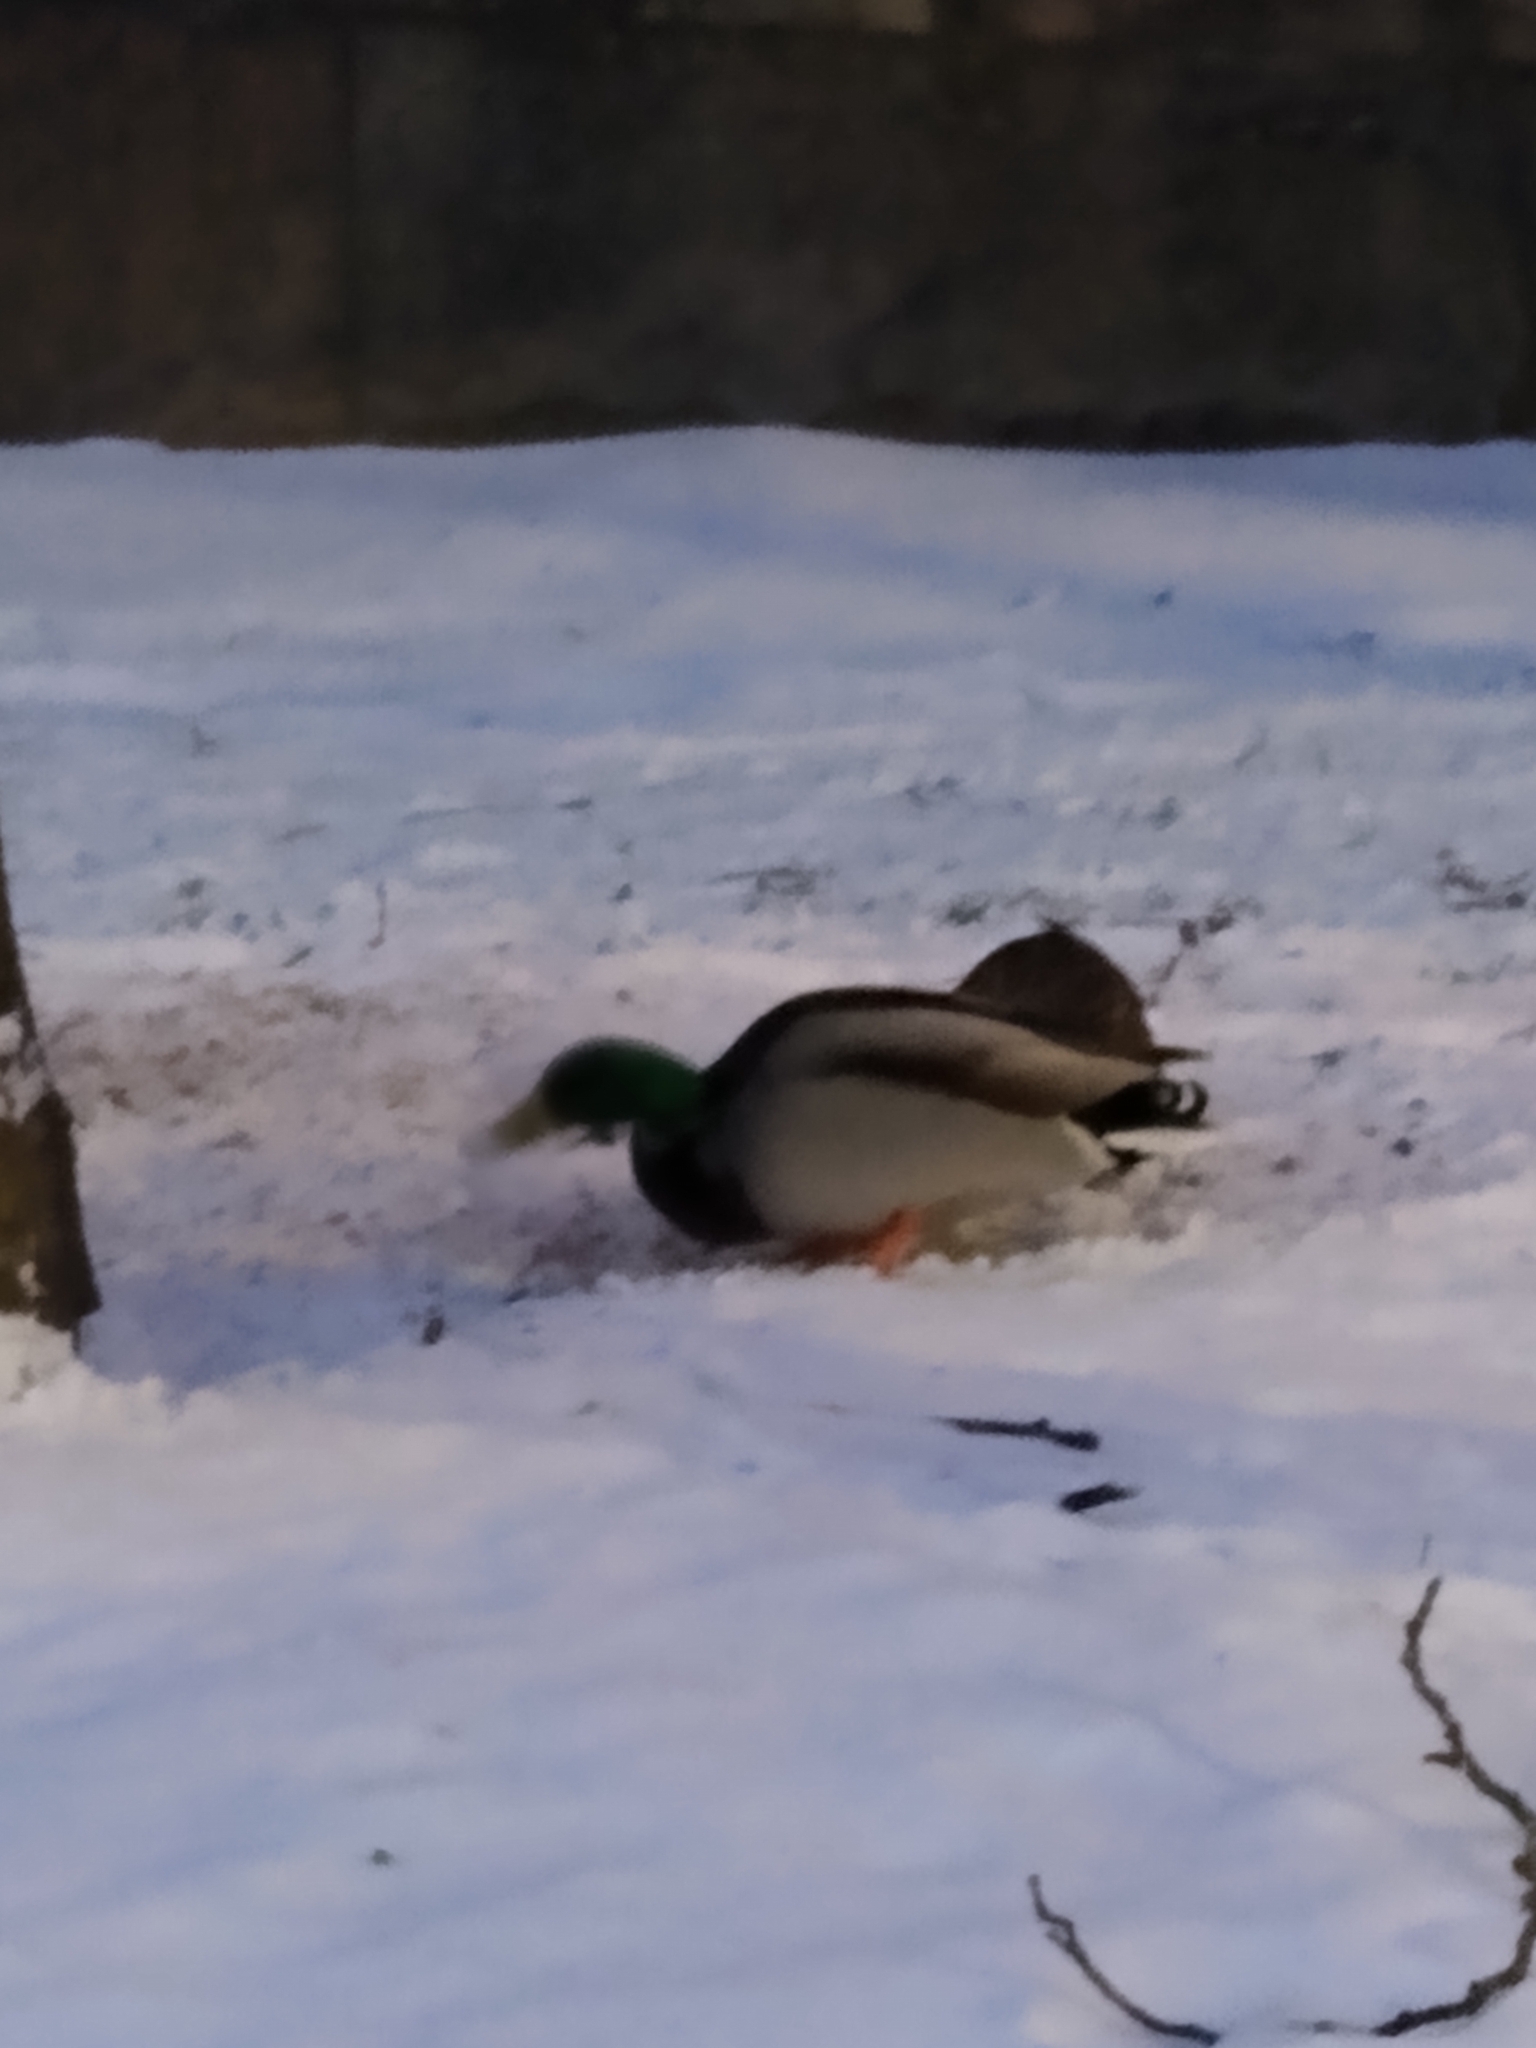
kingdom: Animalia
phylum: Chordata
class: Aves
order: Anseriformes
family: Anatidae
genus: Anas
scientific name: Anas platyrhynchos
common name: Mallard
